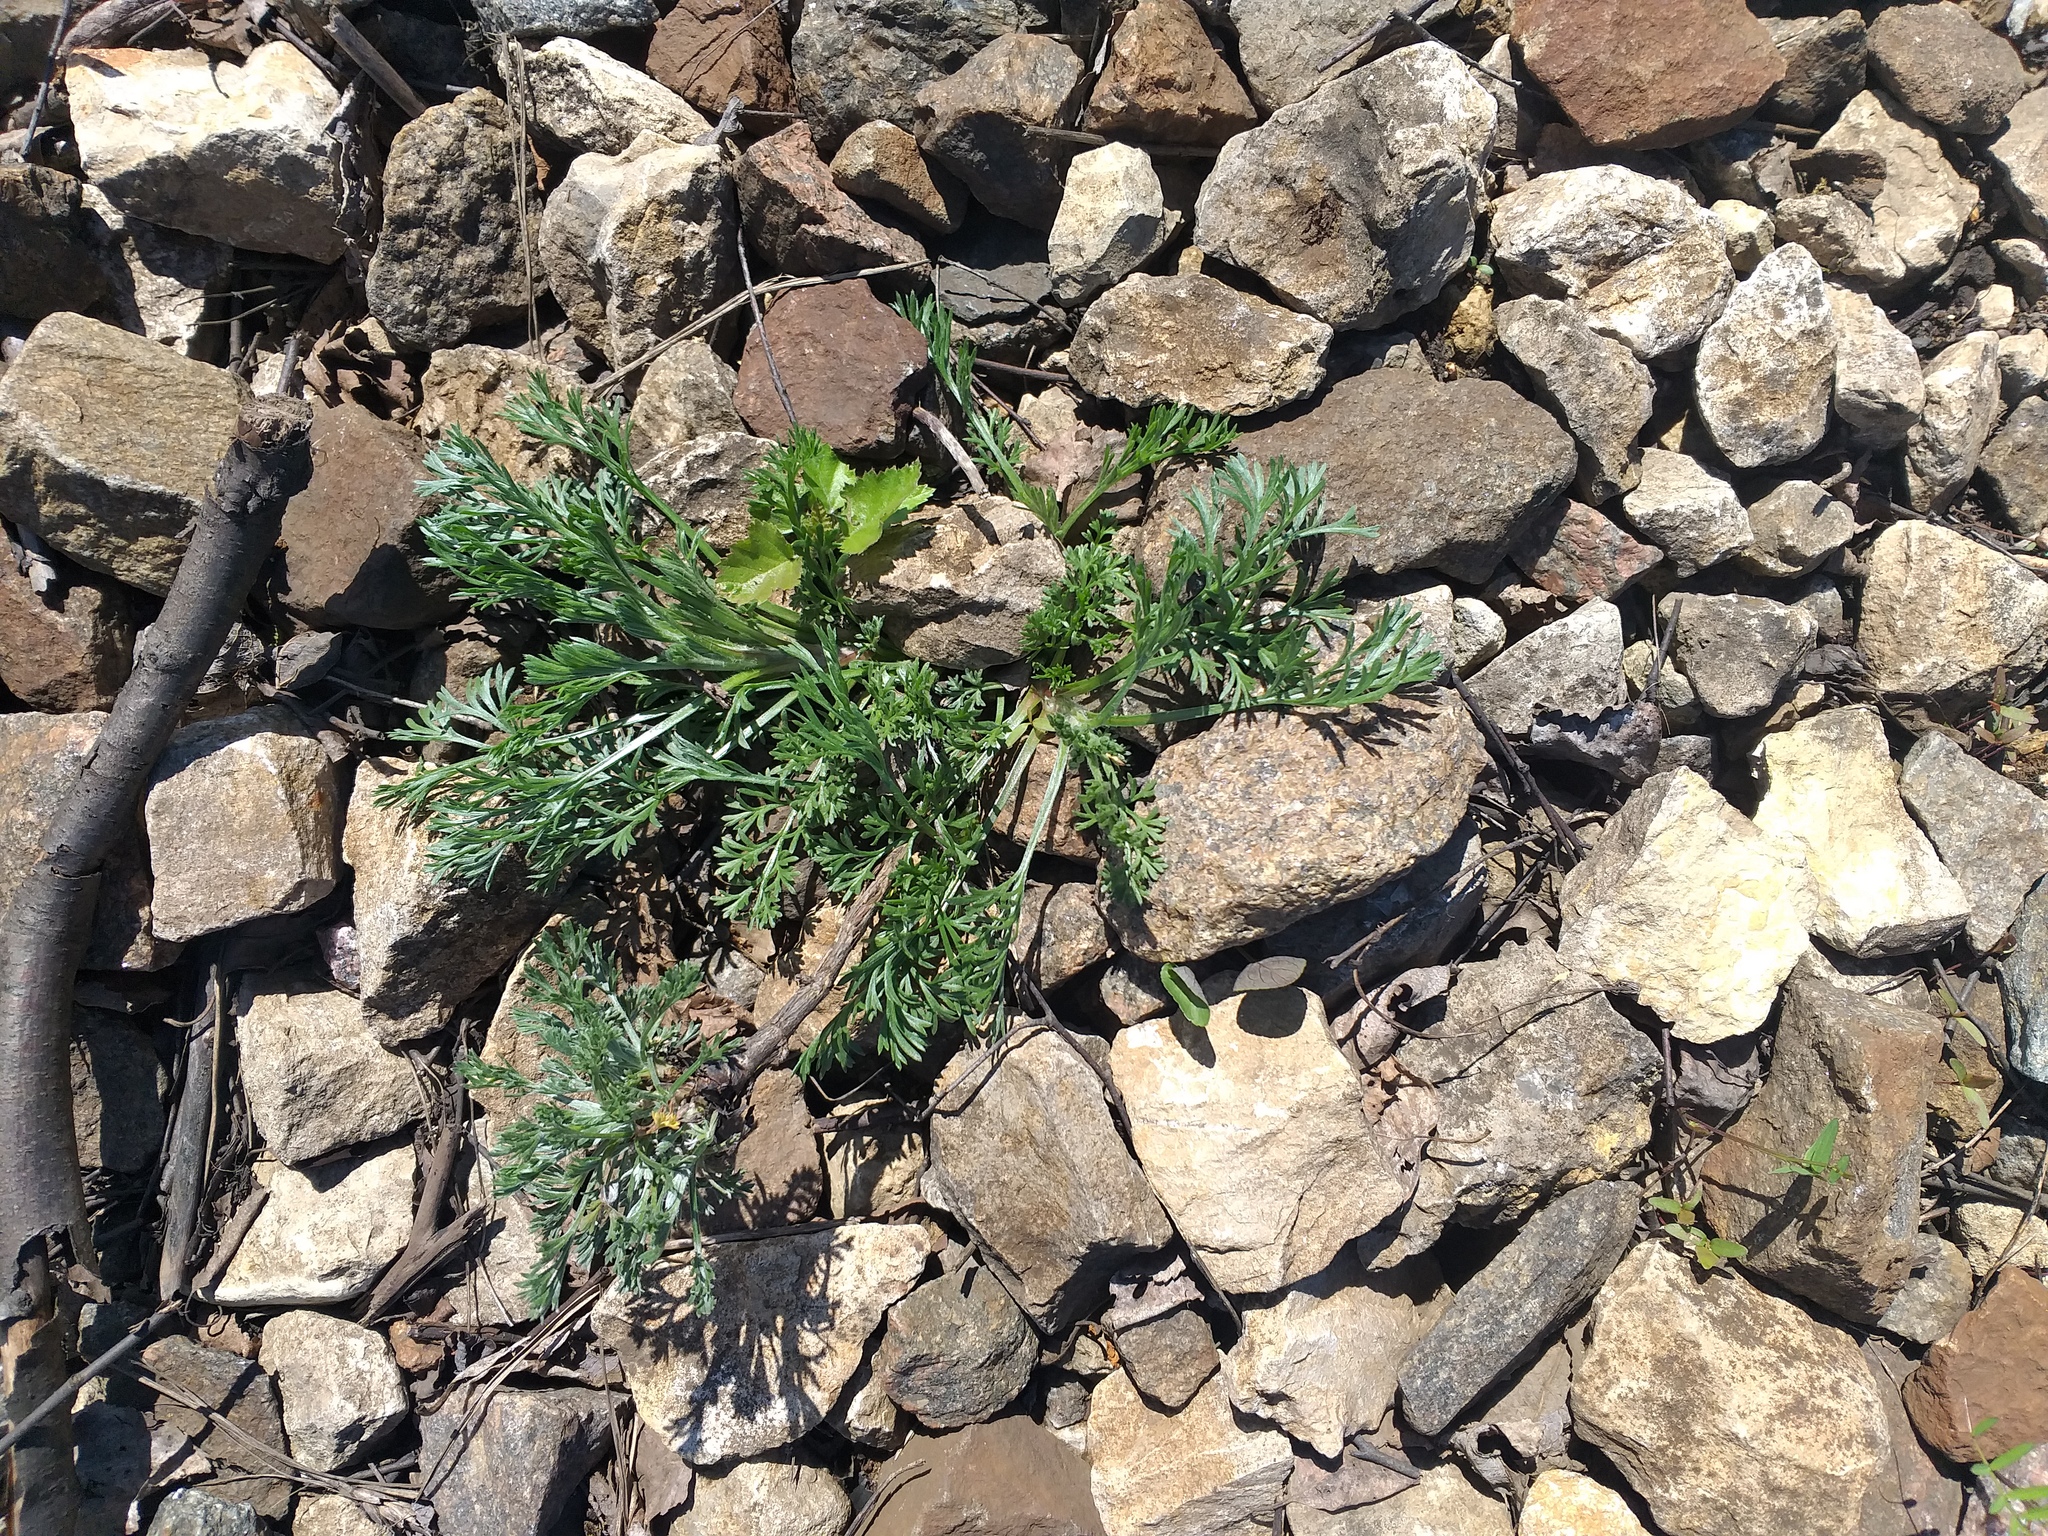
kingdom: Plantae
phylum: Tracheophyta
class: Magnoliopsida
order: Asterales
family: Asteraceae
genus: Artemisia
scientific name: Artemisia campestris
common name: Field wormwood
